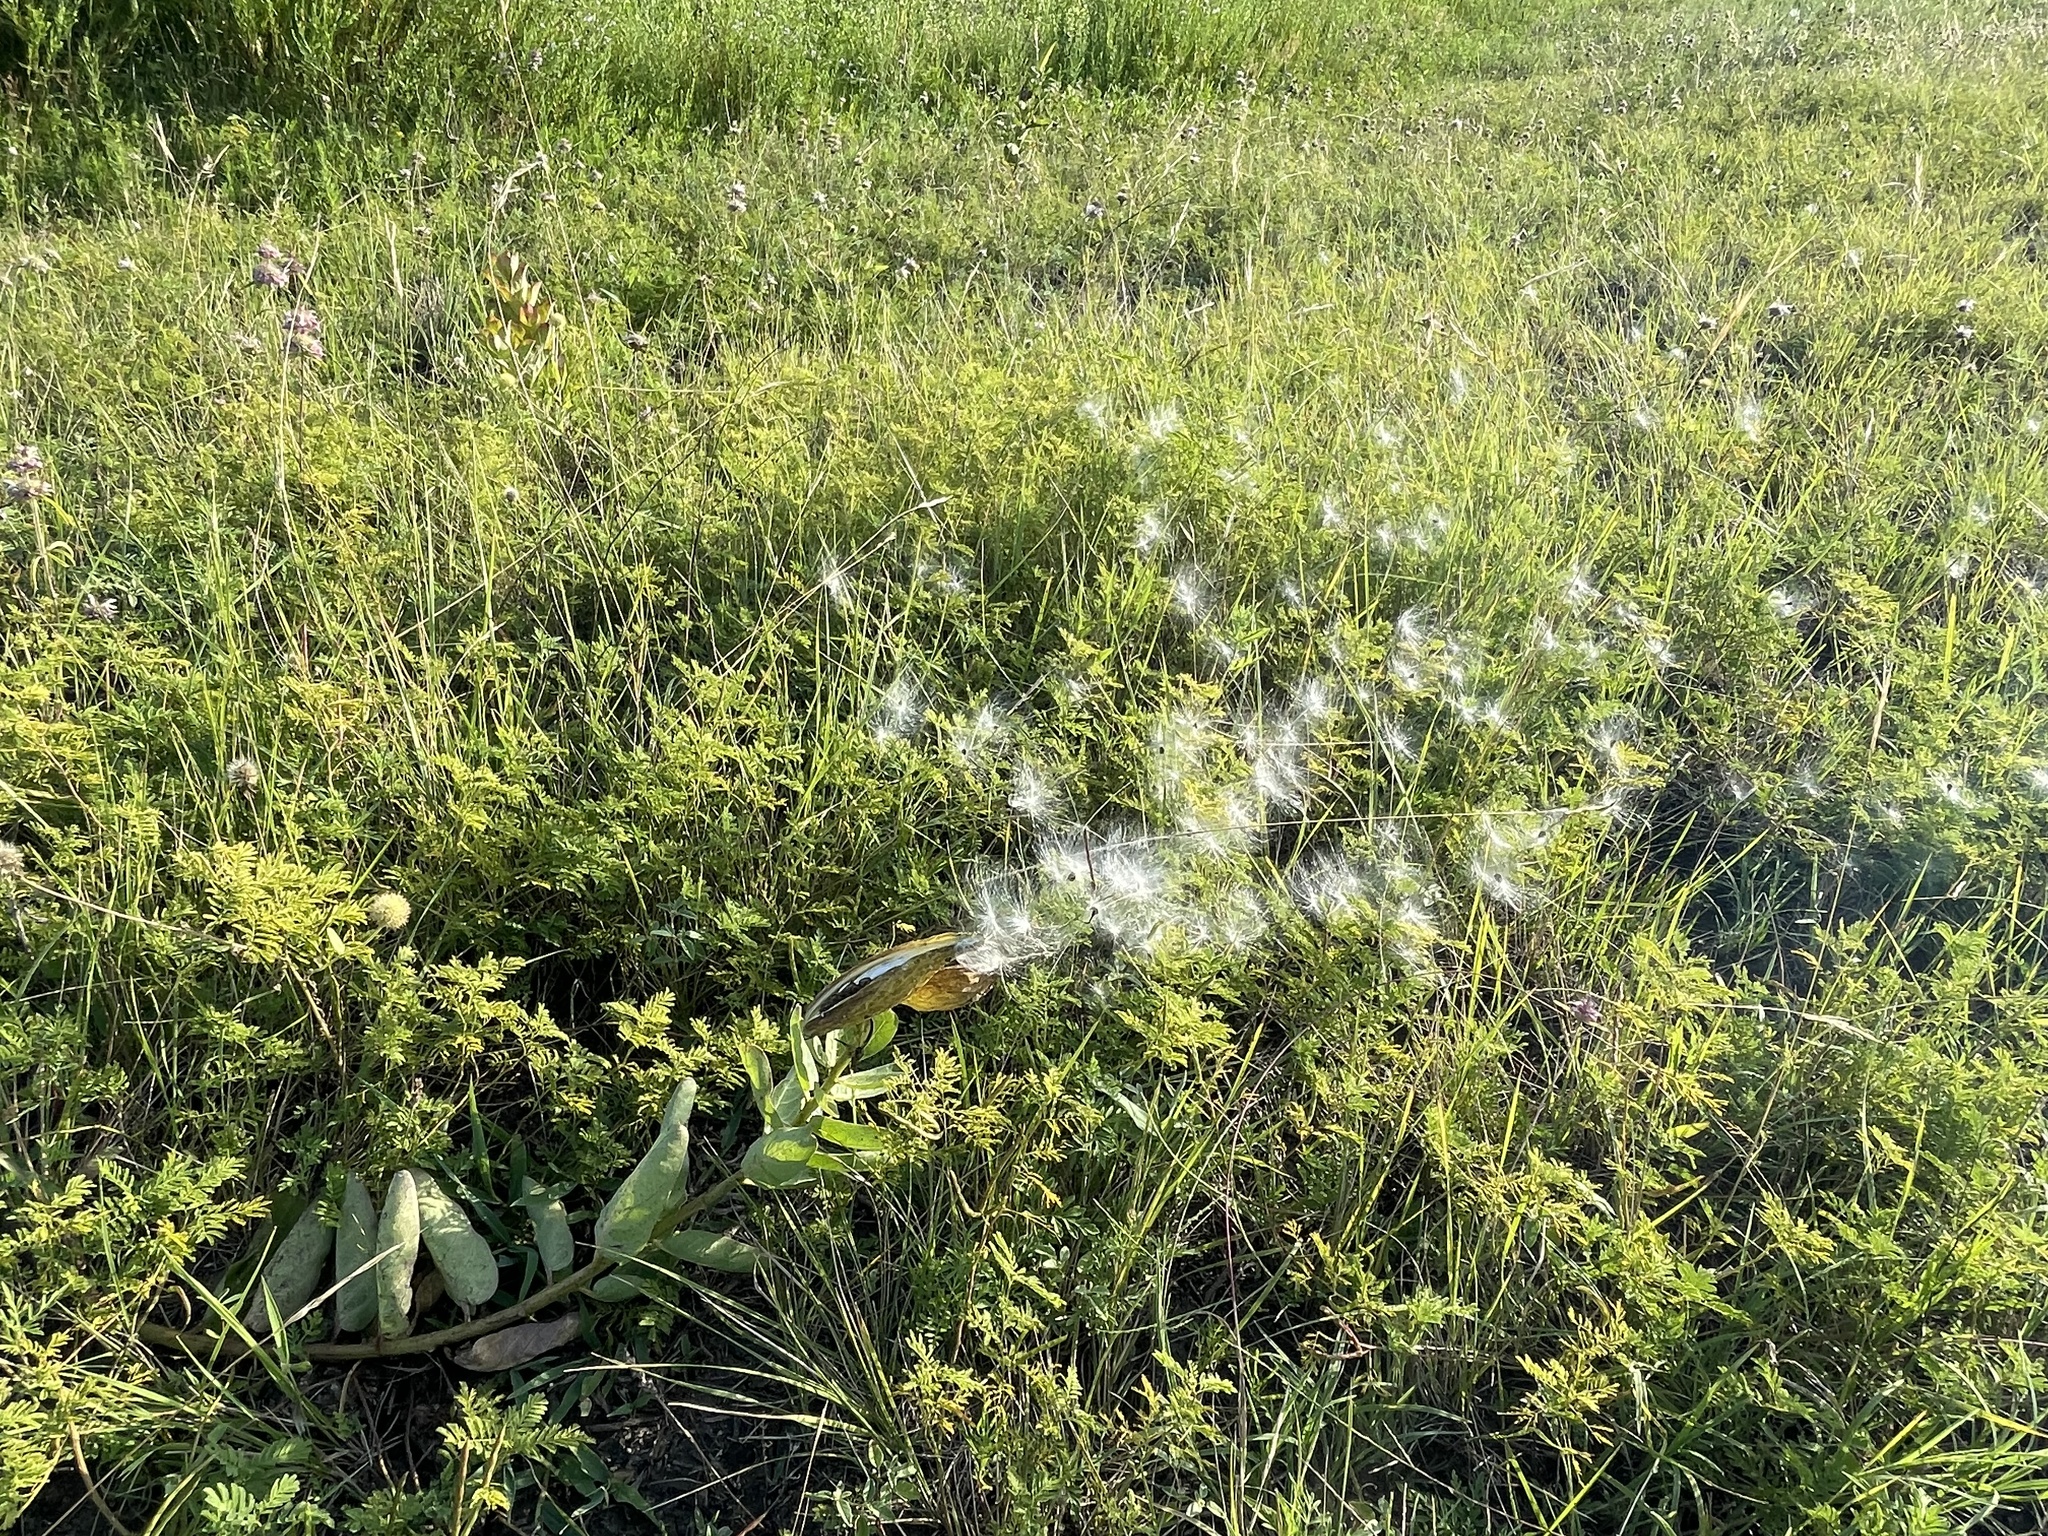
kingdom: Plantae
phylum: Tracheophyta
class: Magnoliopsida
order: Gentianales
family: Apocynaceae
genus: Asclepias
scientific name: Asclepias viridis
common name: Antelope-horns
